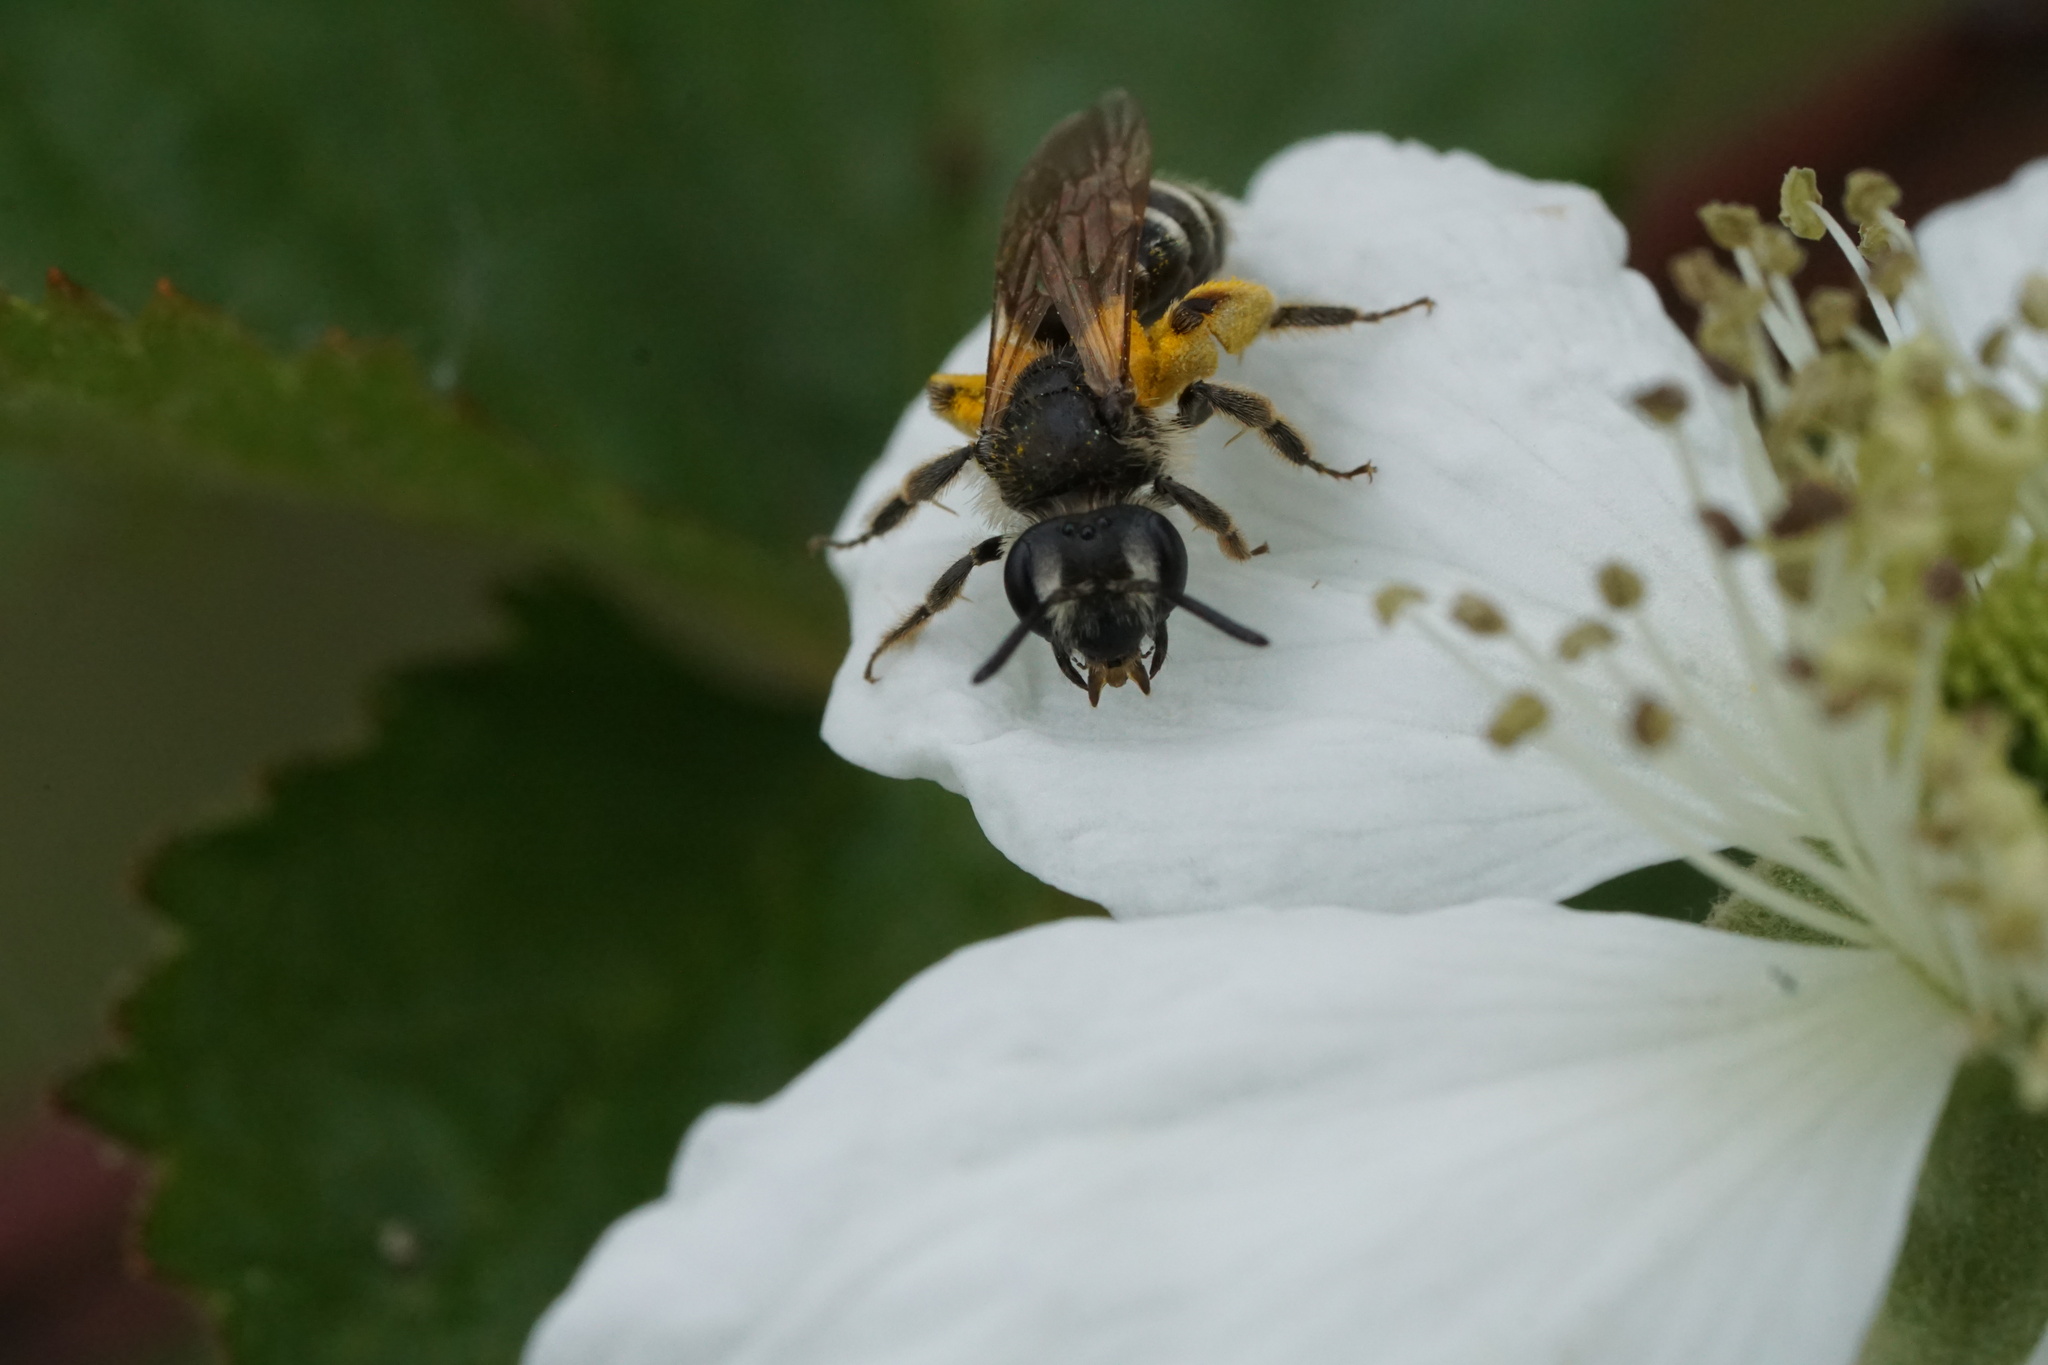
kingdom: Animalia
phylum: Arthropoda
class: Insecta
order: Hymenoptera
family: Andrenidae
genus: Andrena
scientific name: Andrena nasonii
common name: Nason's mining bee
